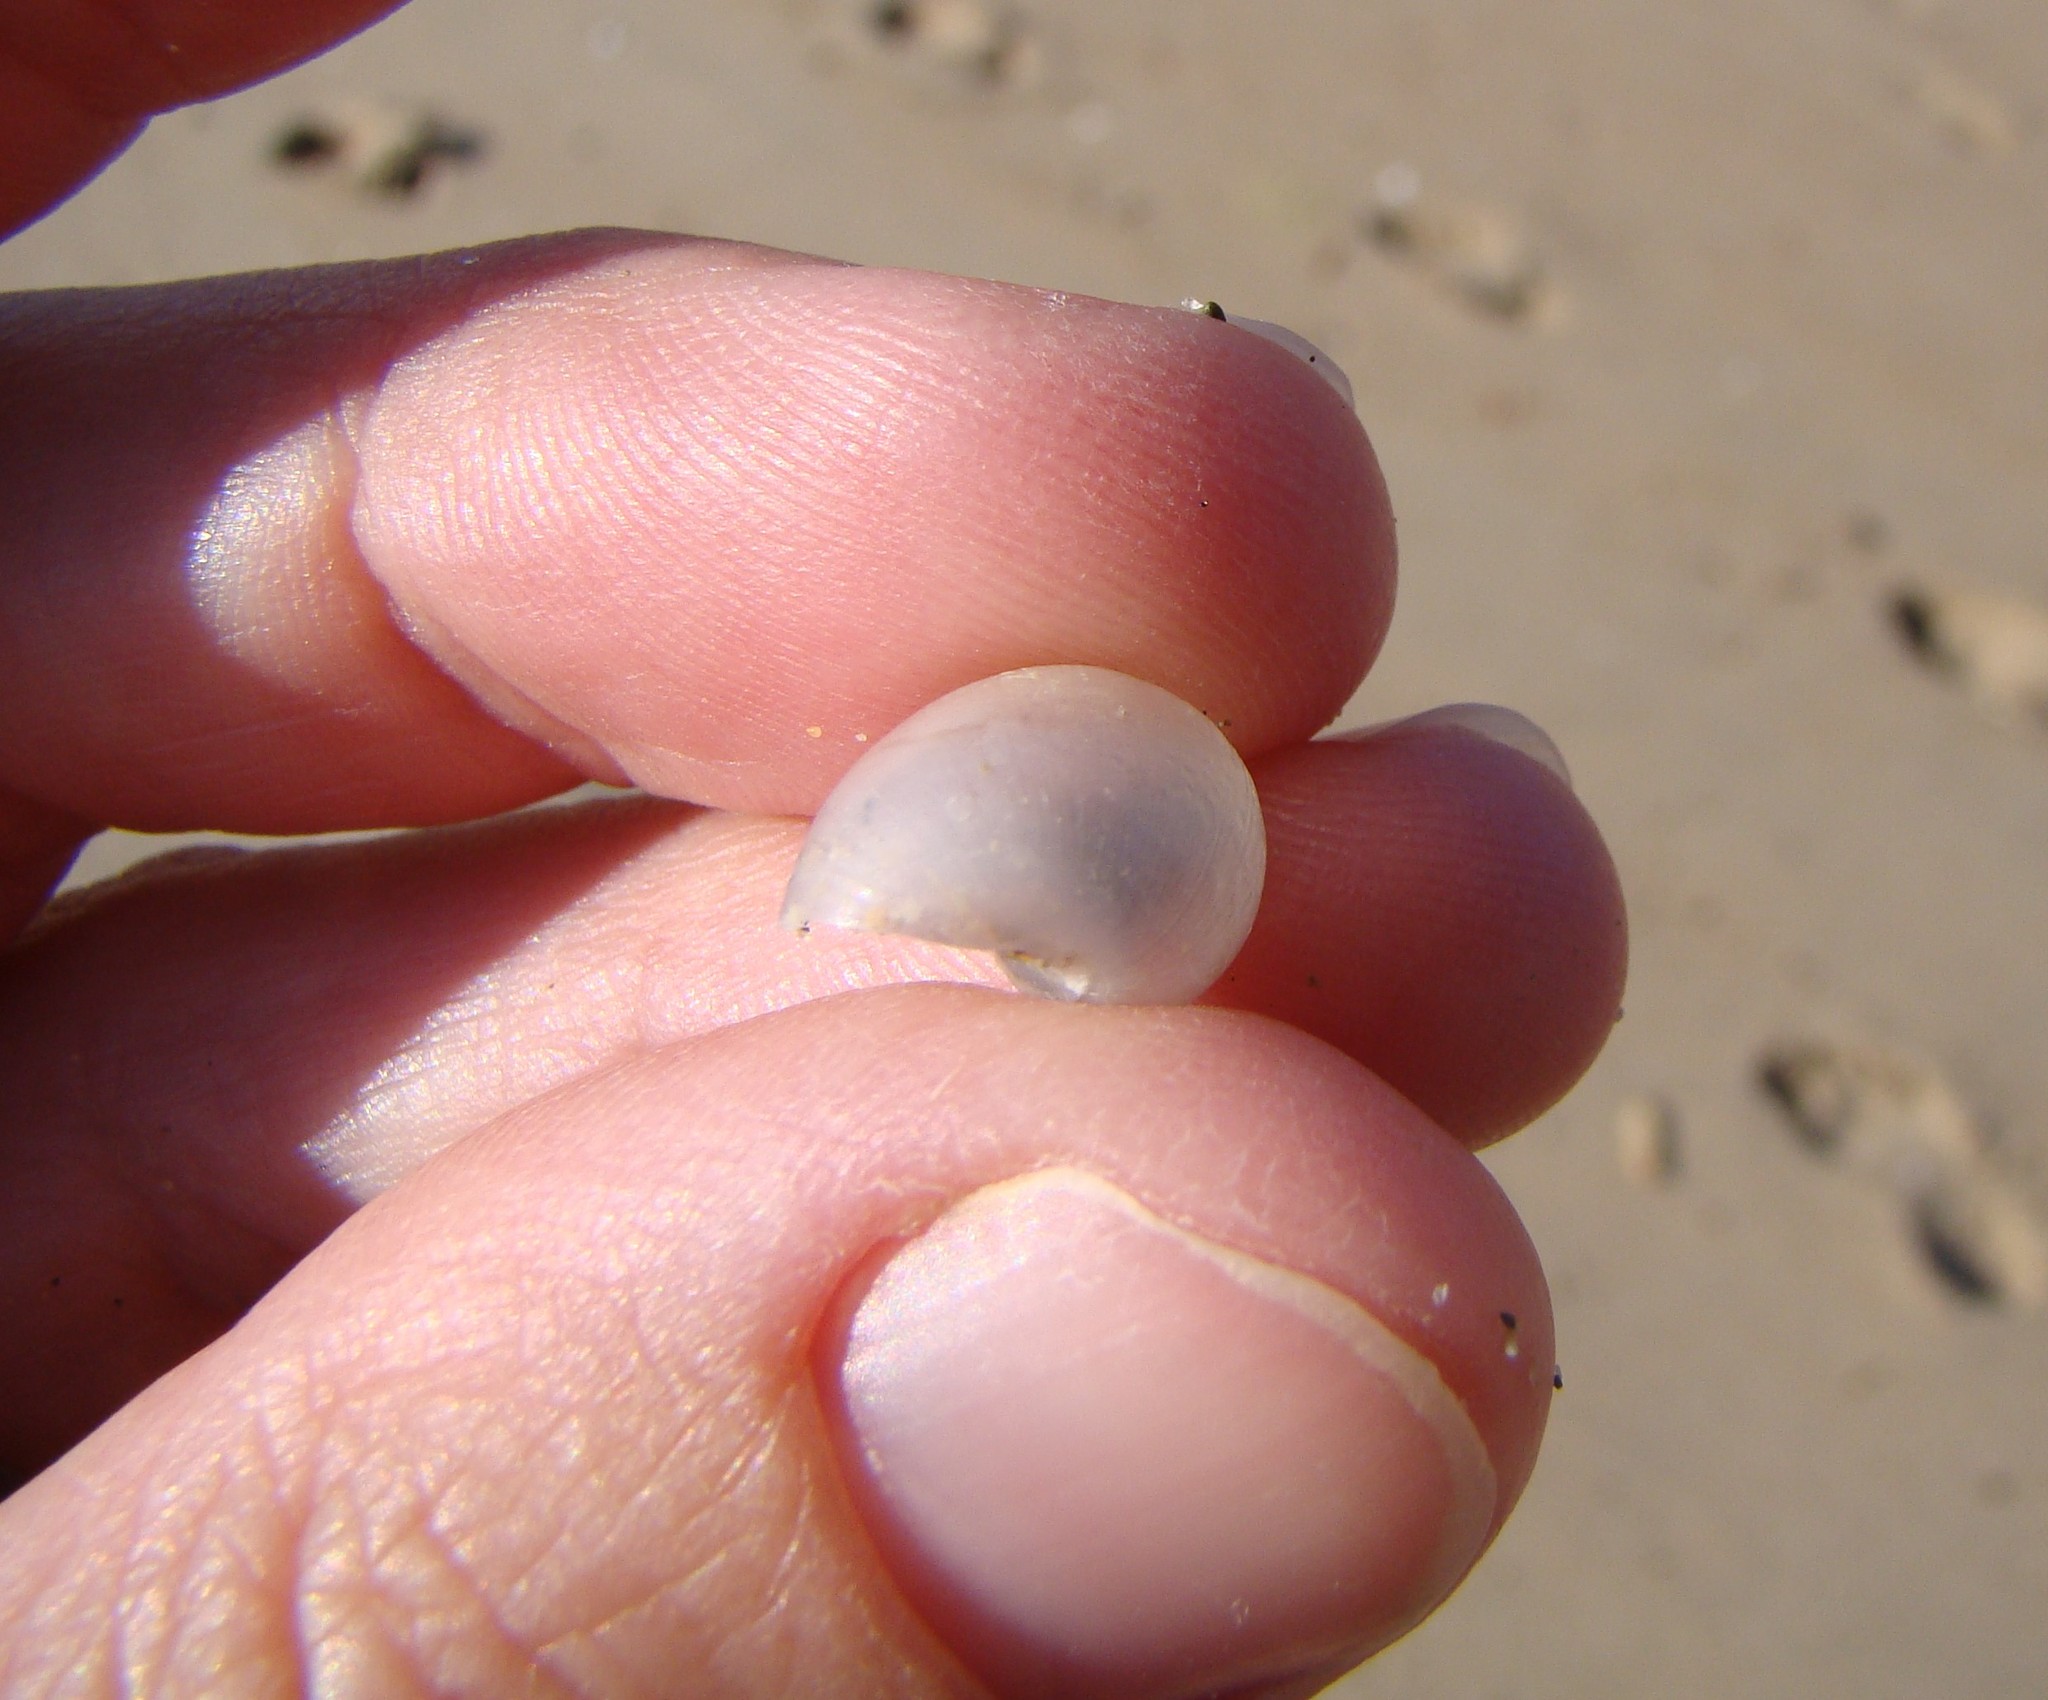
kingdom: Animalia
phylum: Mollusca
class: Gastropoda
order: Cephalaspidea
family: Haminoeidae
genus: Papawera
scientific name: Papawera zelandiae
